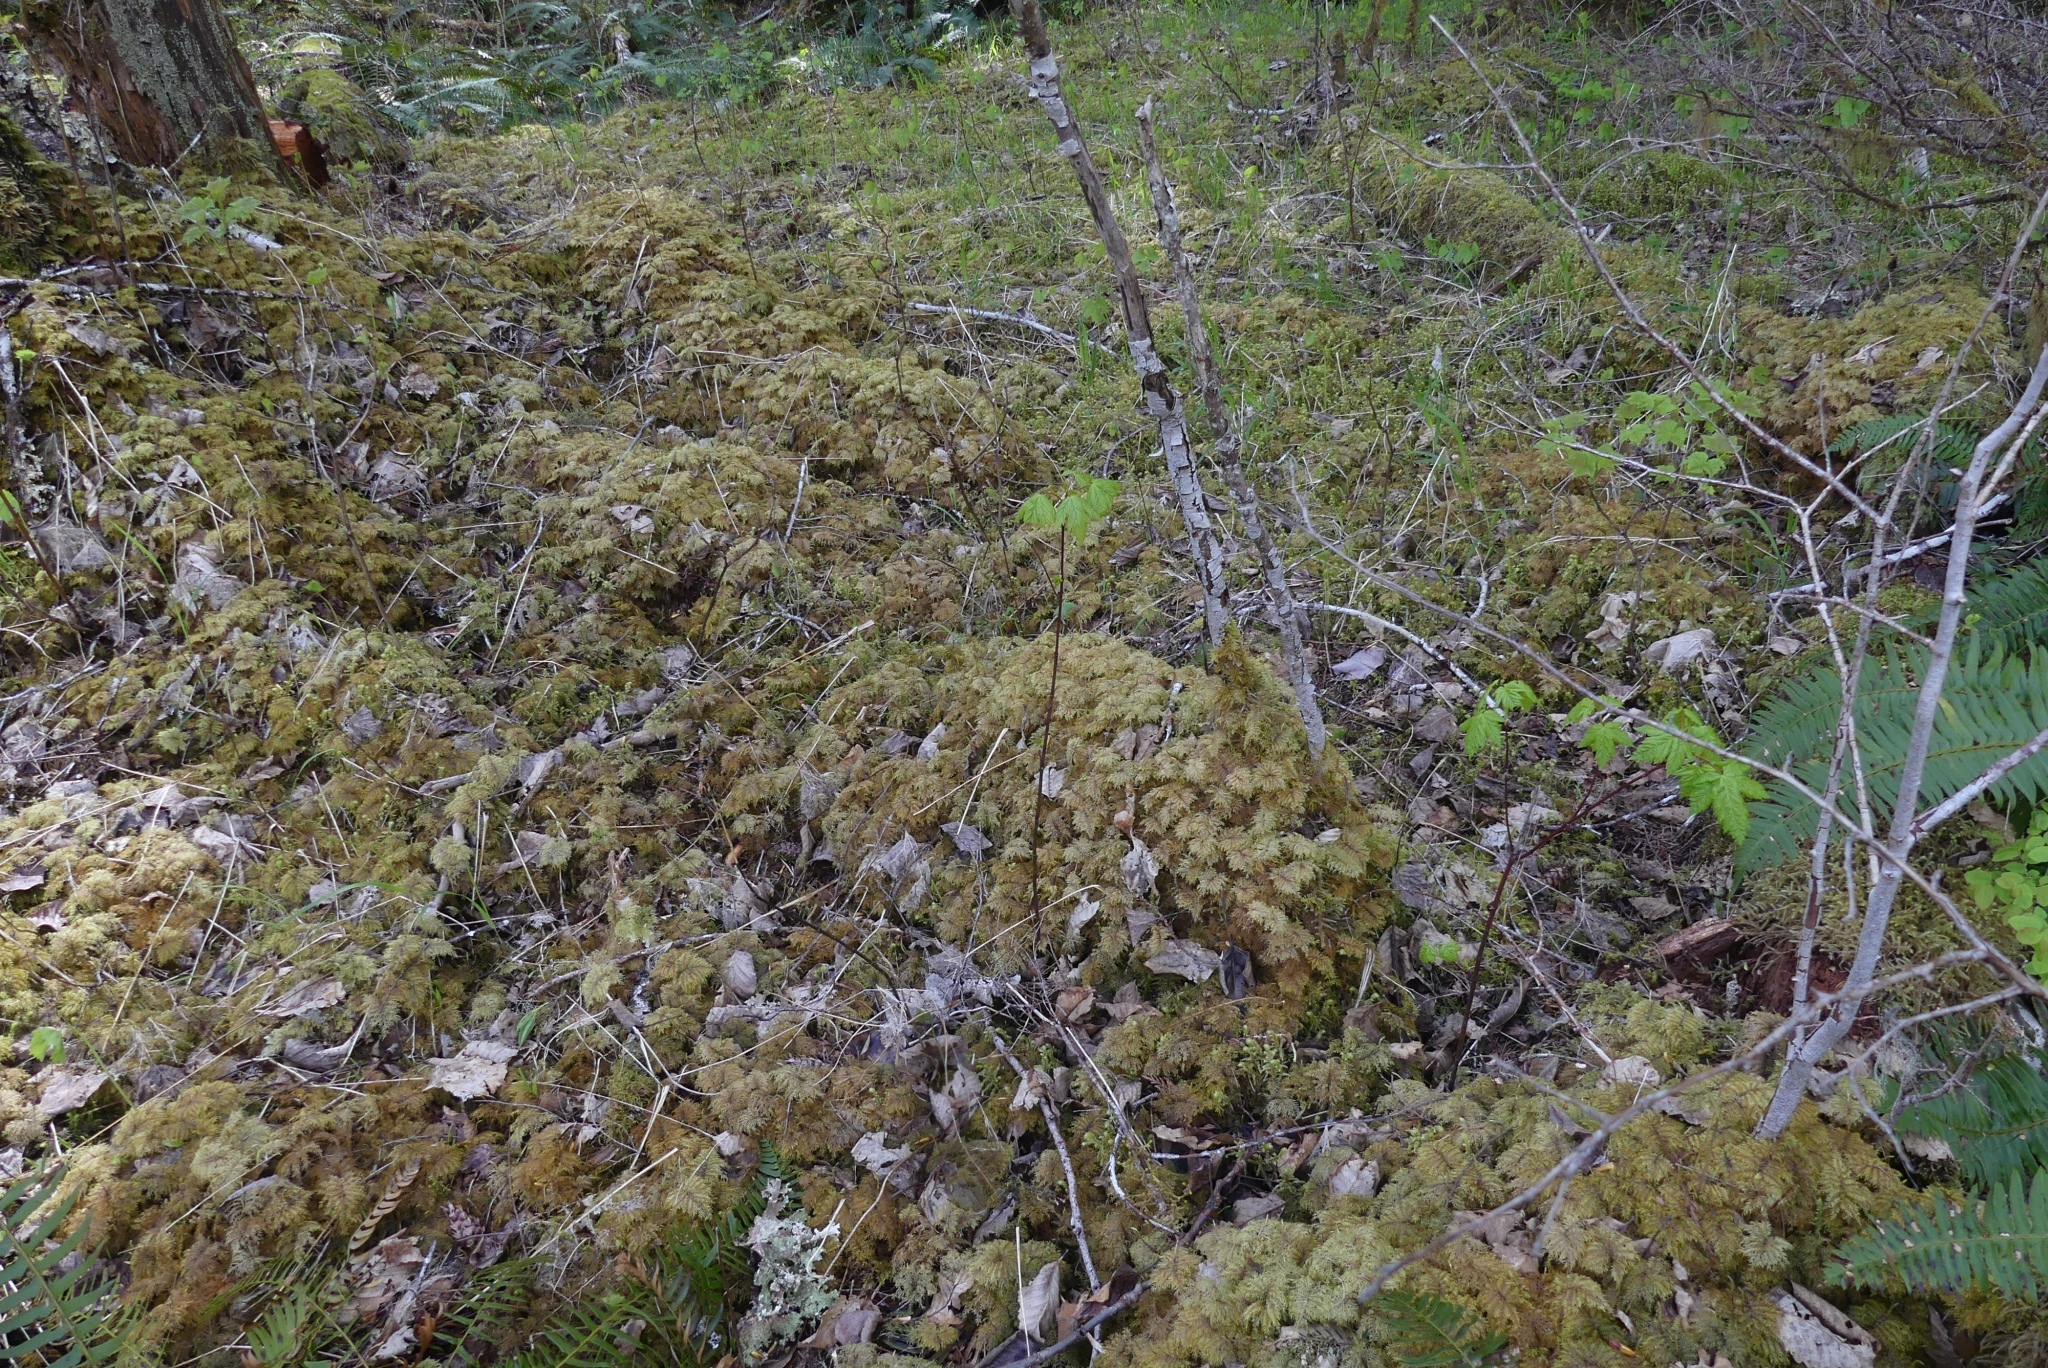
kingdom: Plantae
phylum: Bryophyta
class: Bryopsida
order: Hypnales
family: Hylocomiaceae
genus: Hylocomium
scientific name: Hylocomium splendens
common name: Stairstep moss
